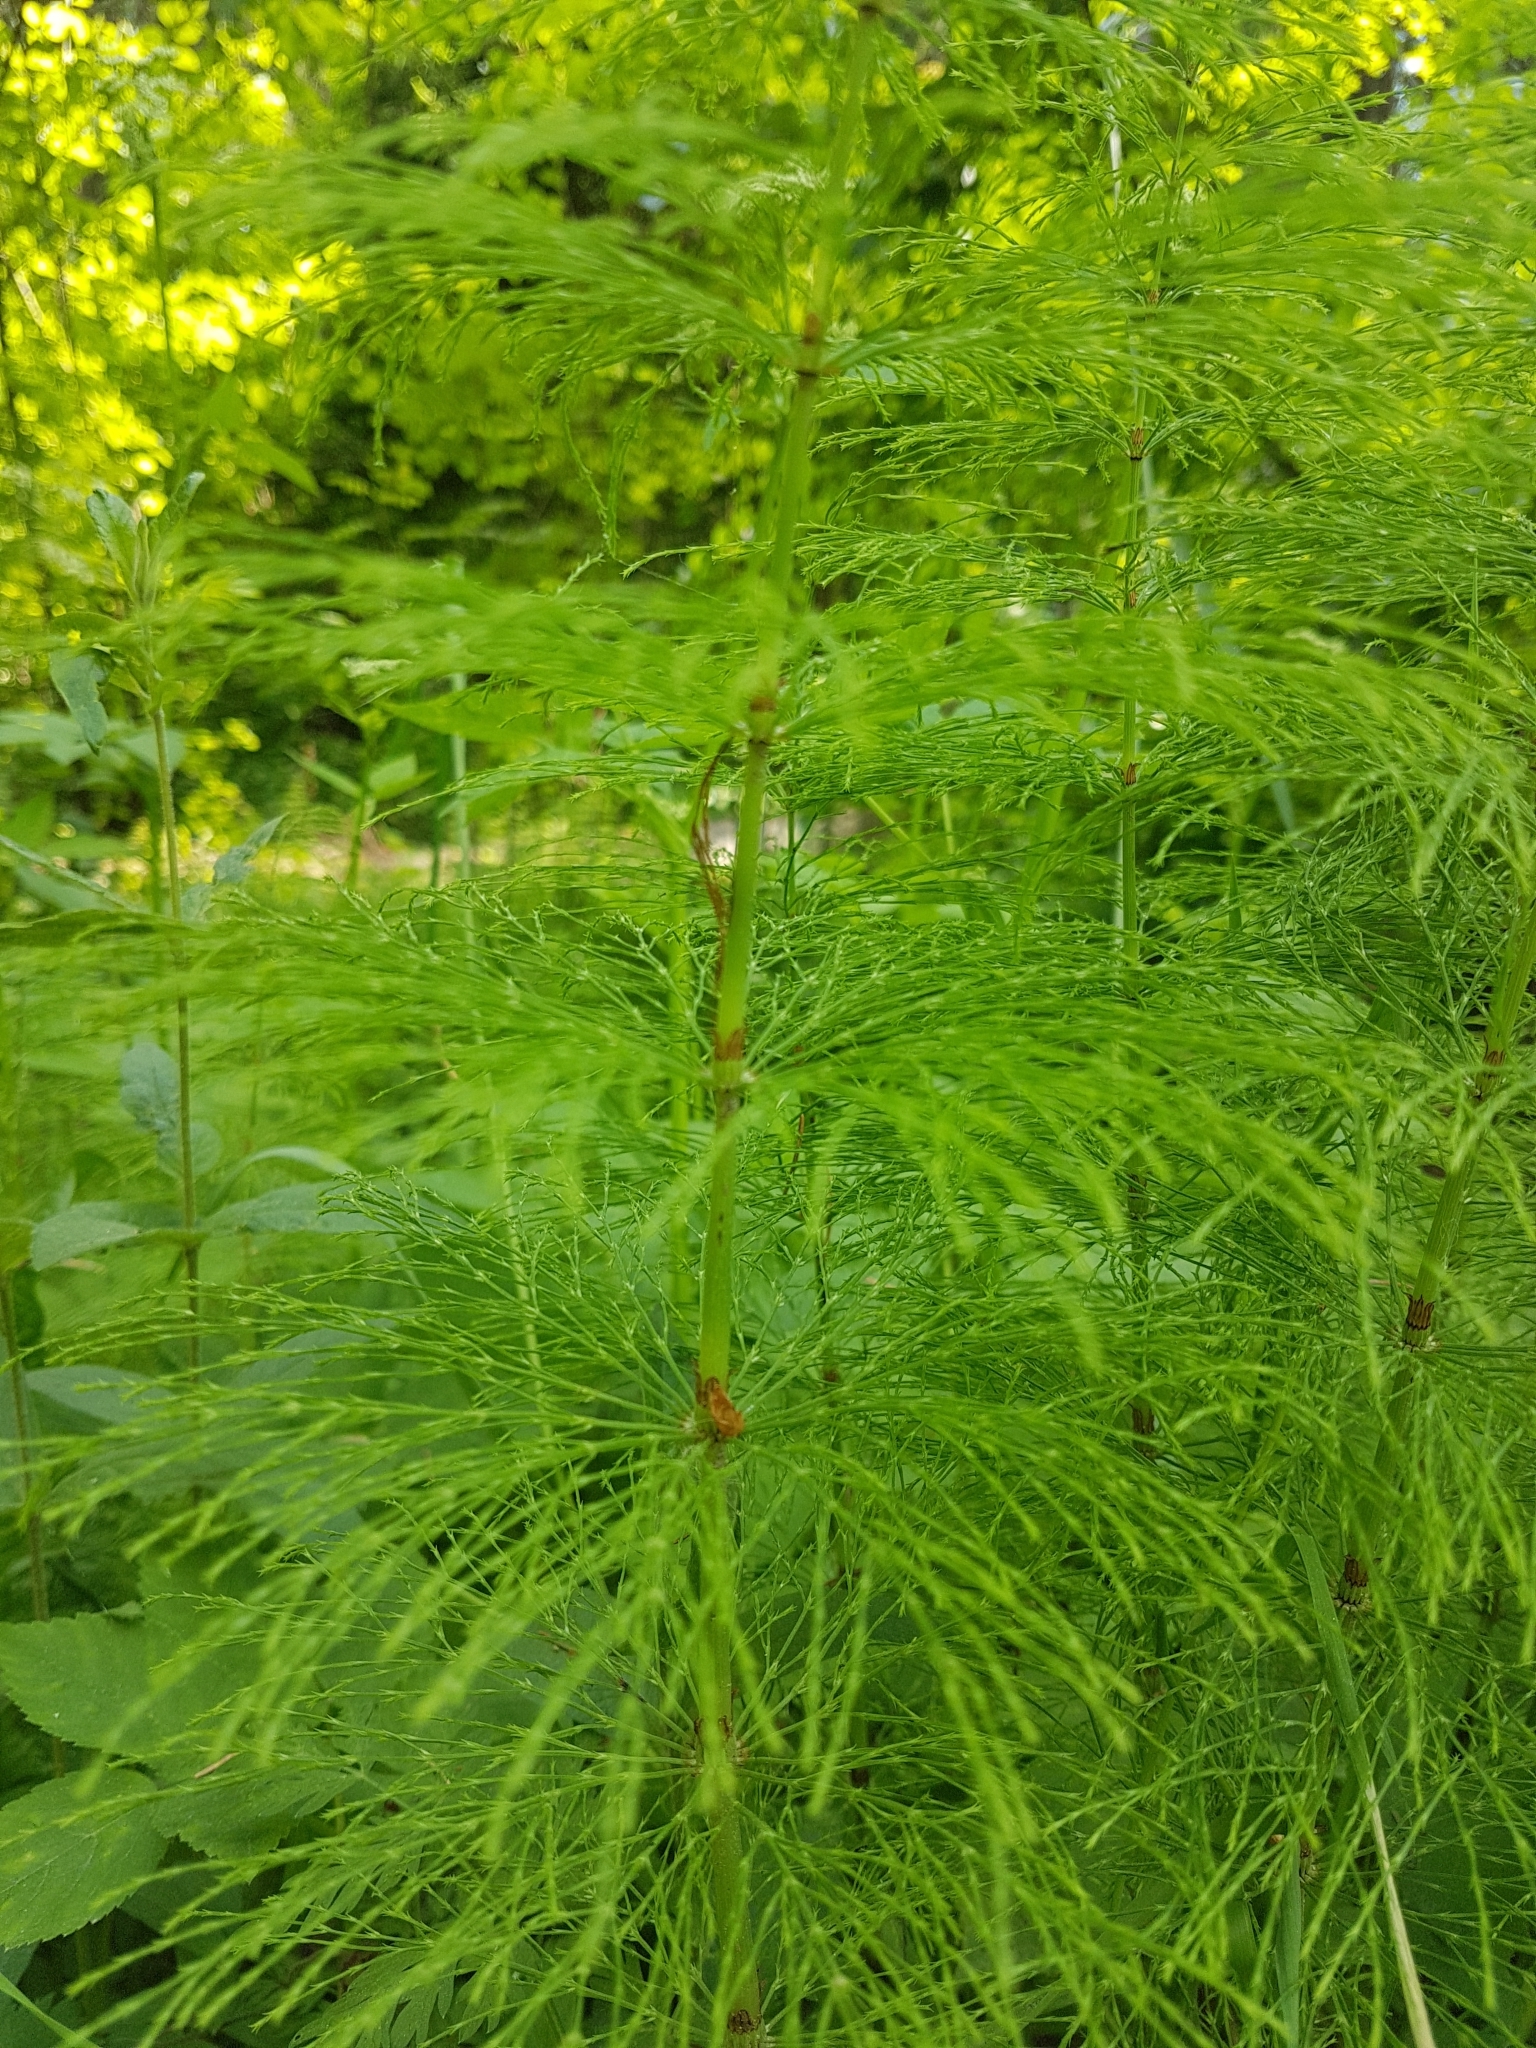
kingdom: Plantae
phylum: Tracheophyta
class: Polypodiopsida
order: Equisetales
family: Equisetaceae
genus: Equisetum
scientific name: Equisetum sylvaticum
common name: Wood horsetail
